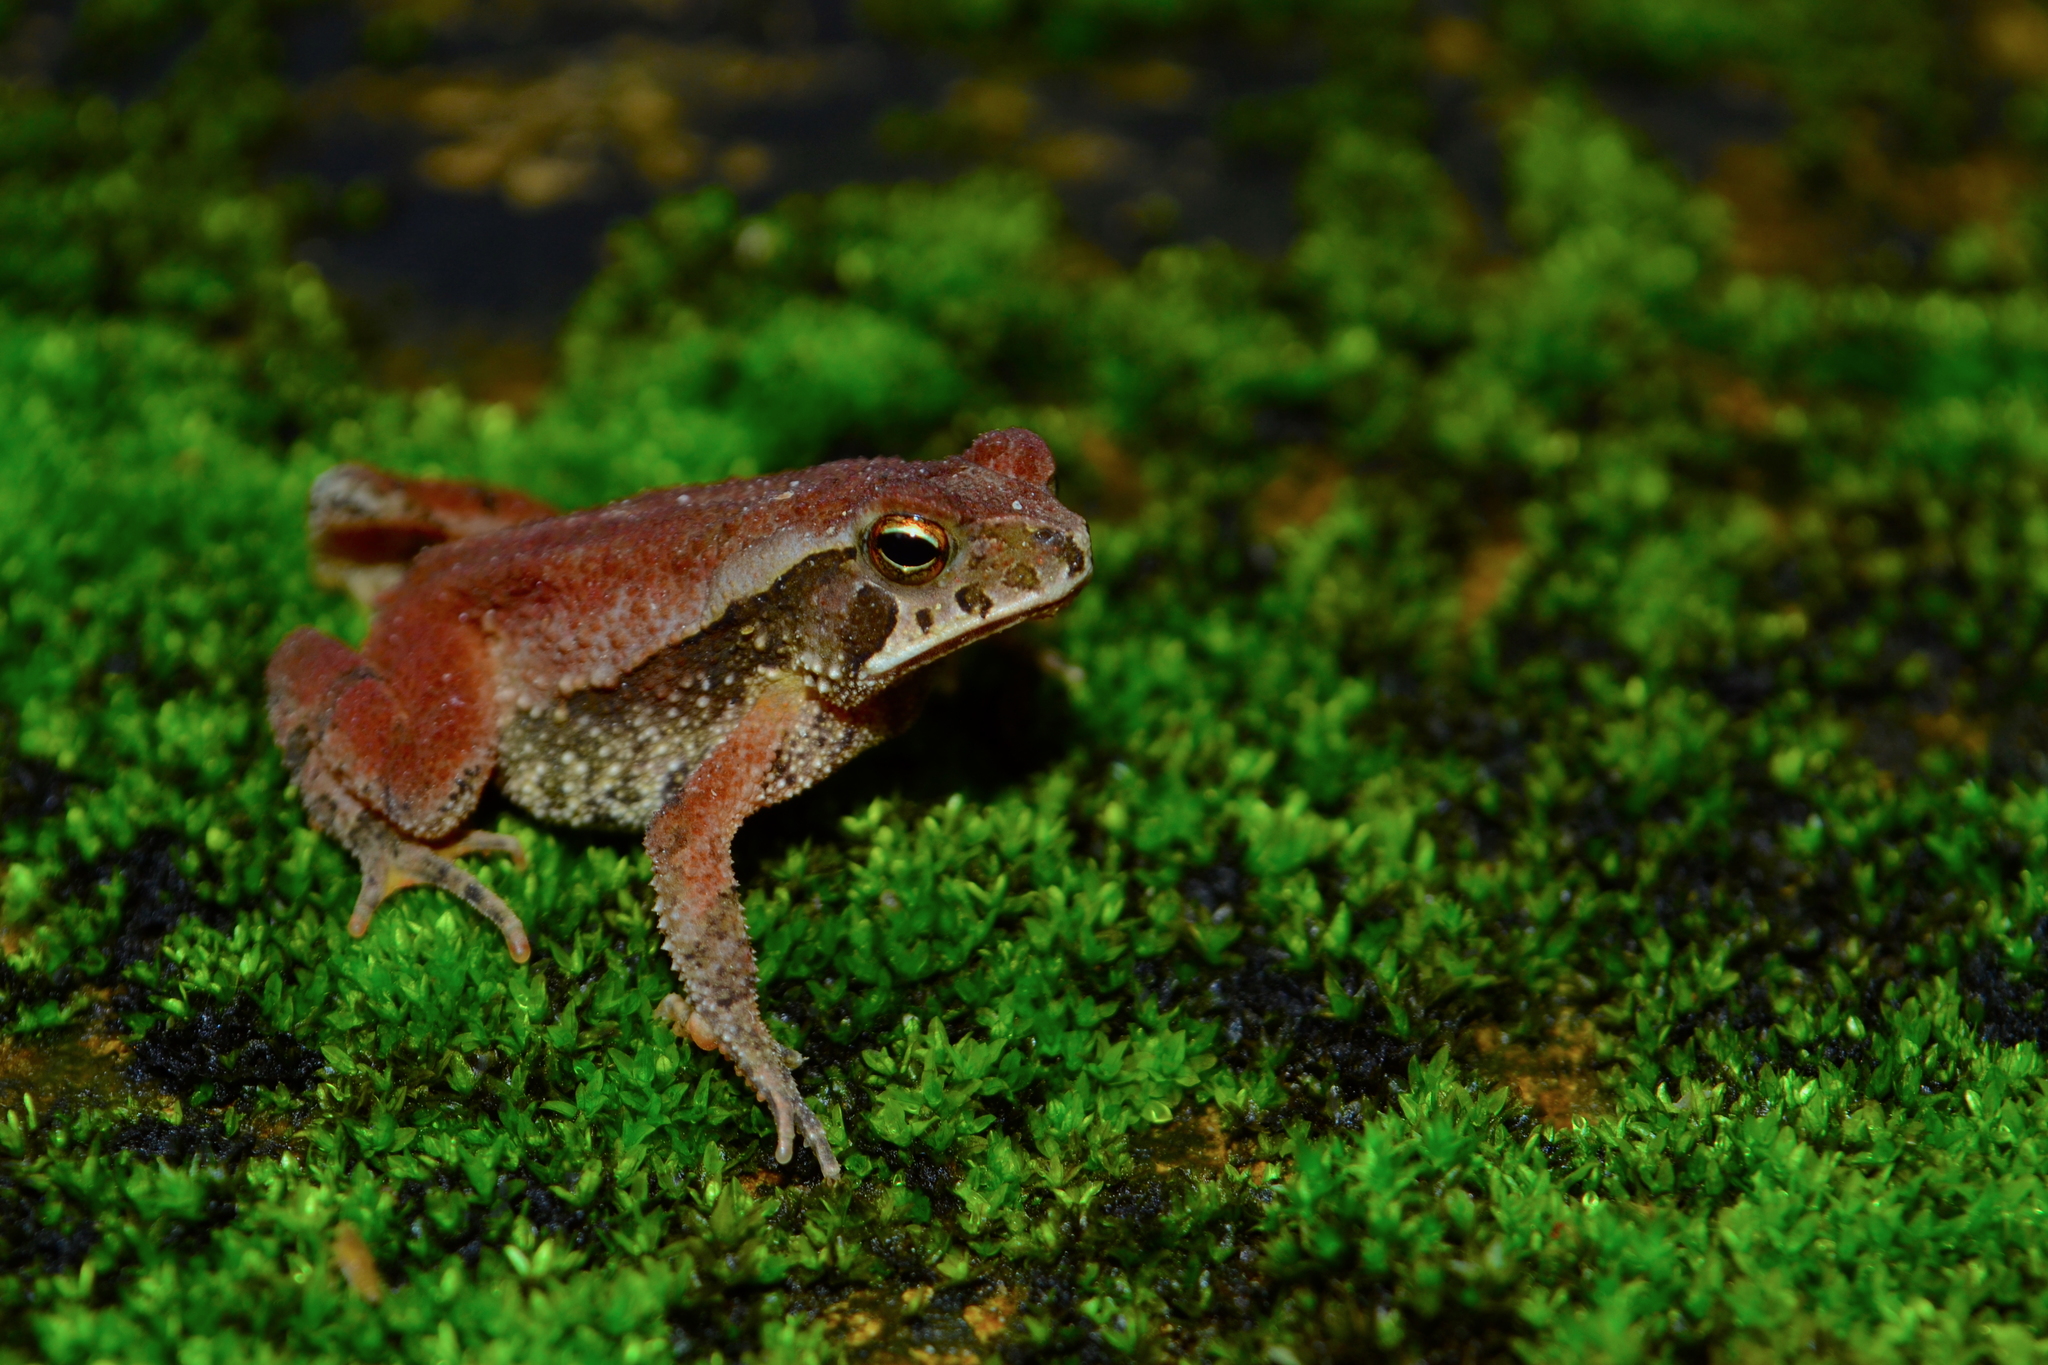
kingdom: Animalia
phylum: Chordata
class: Amphibia
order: Anura
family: Bufonidae
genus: Incilius
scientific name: Incilius canaliferus
